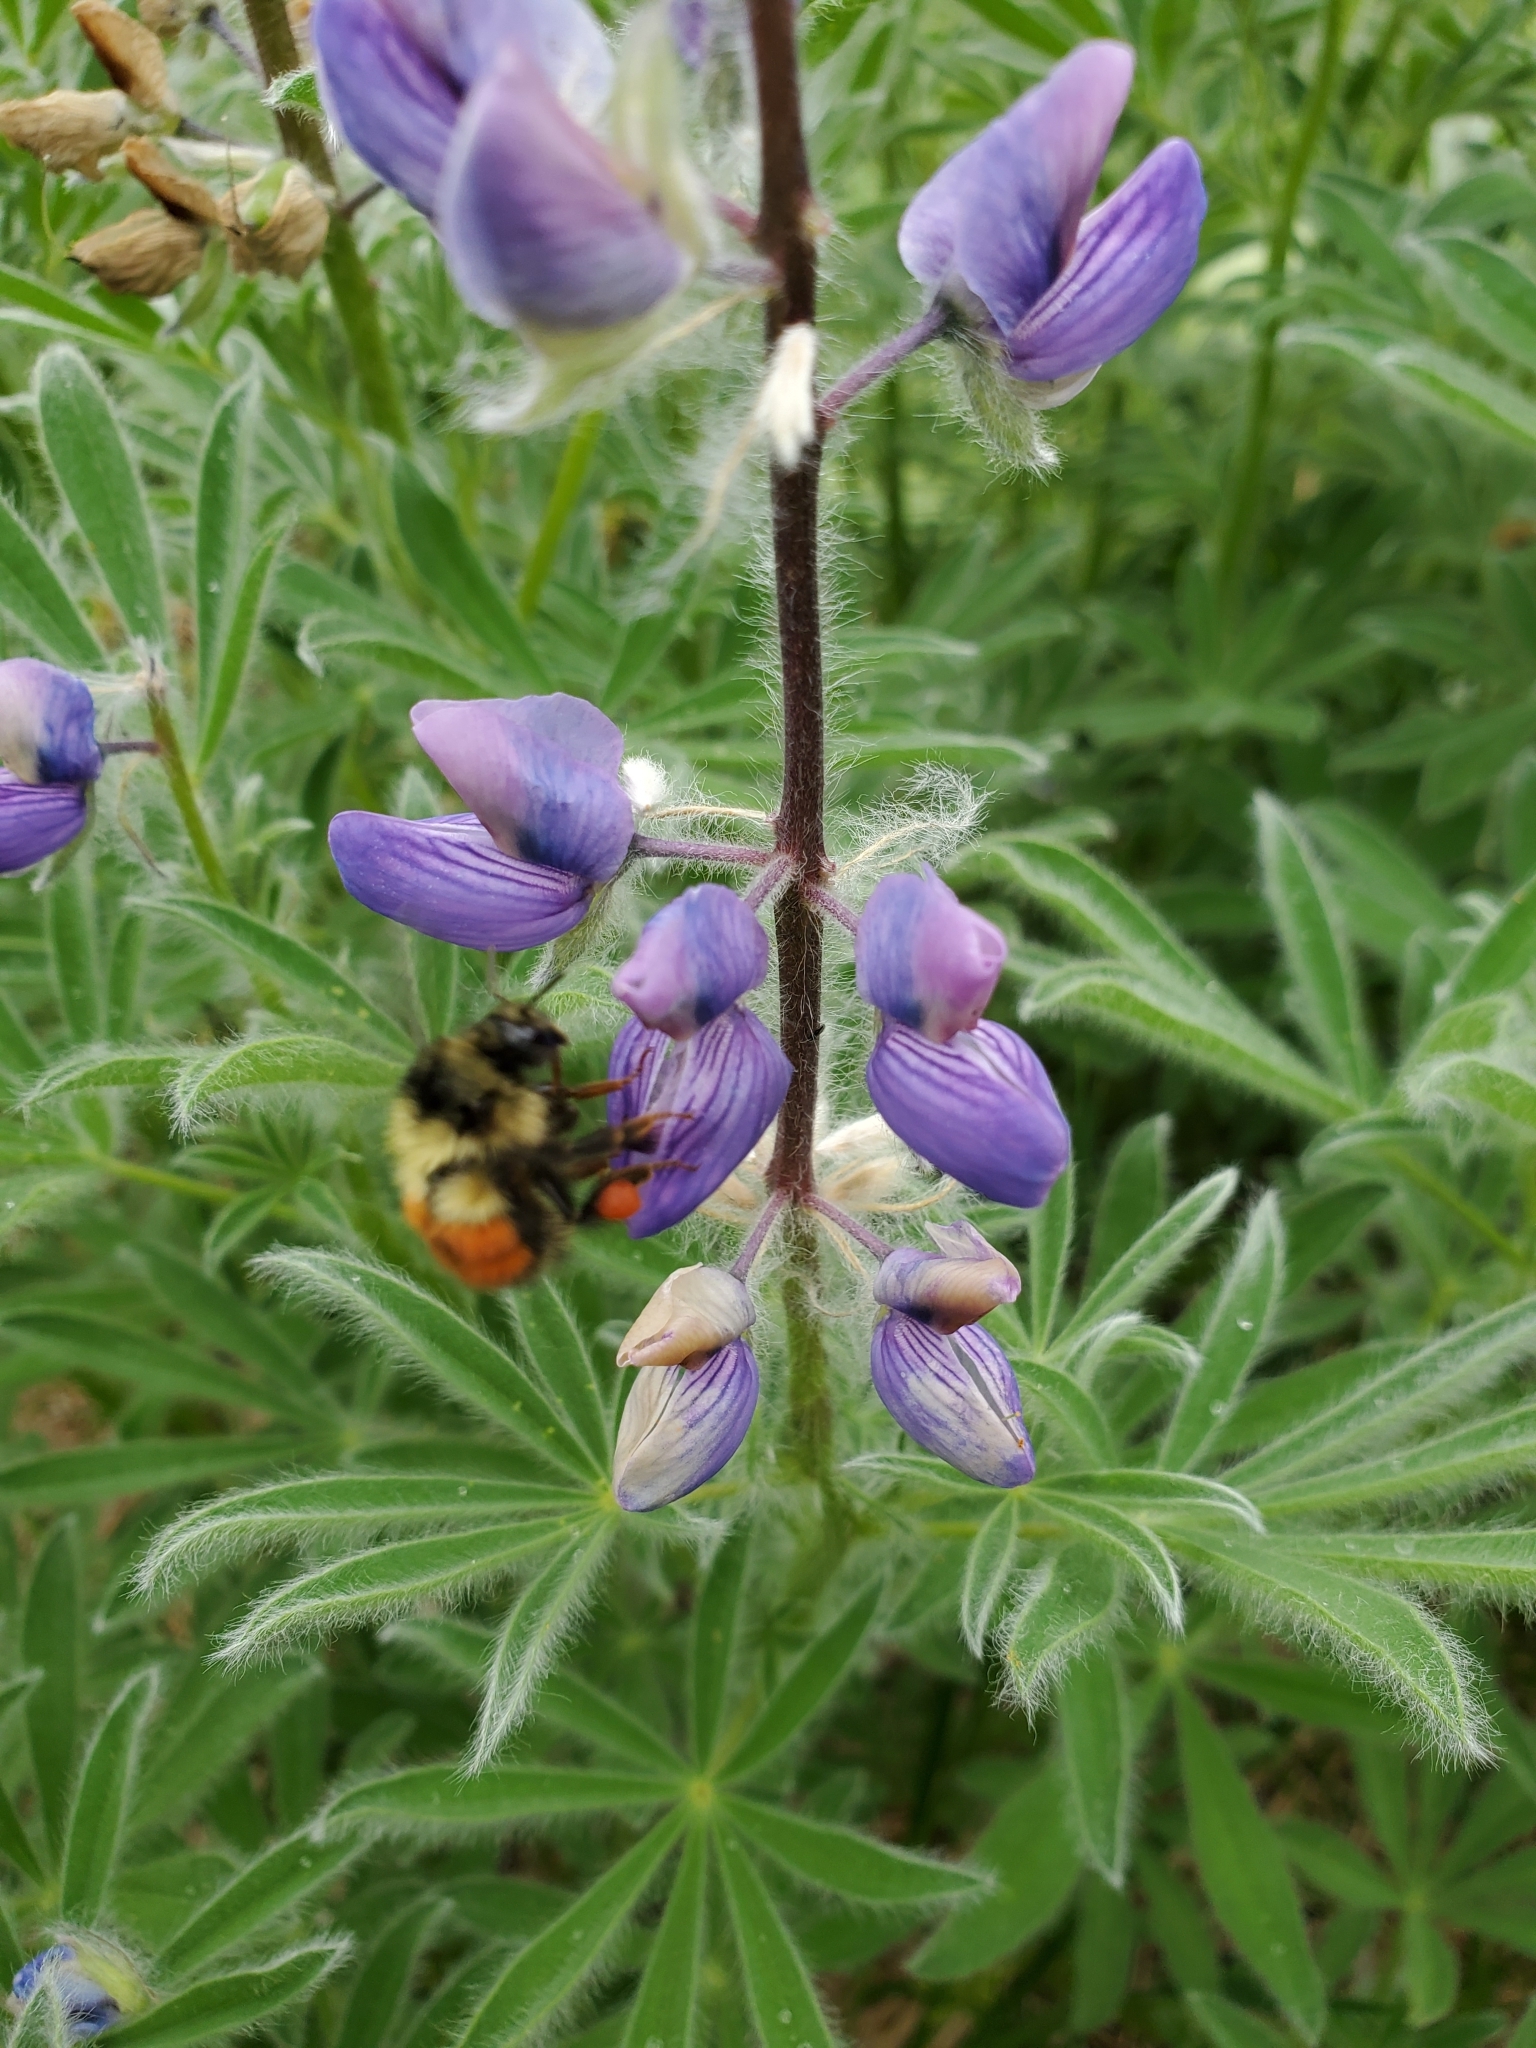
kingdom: Animalia
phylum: Arthropoda
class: Insecta
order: Hymenoptera
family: Apidae
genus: Bombus
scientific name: Bombus melanopygus
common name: Black tail bumble bee
